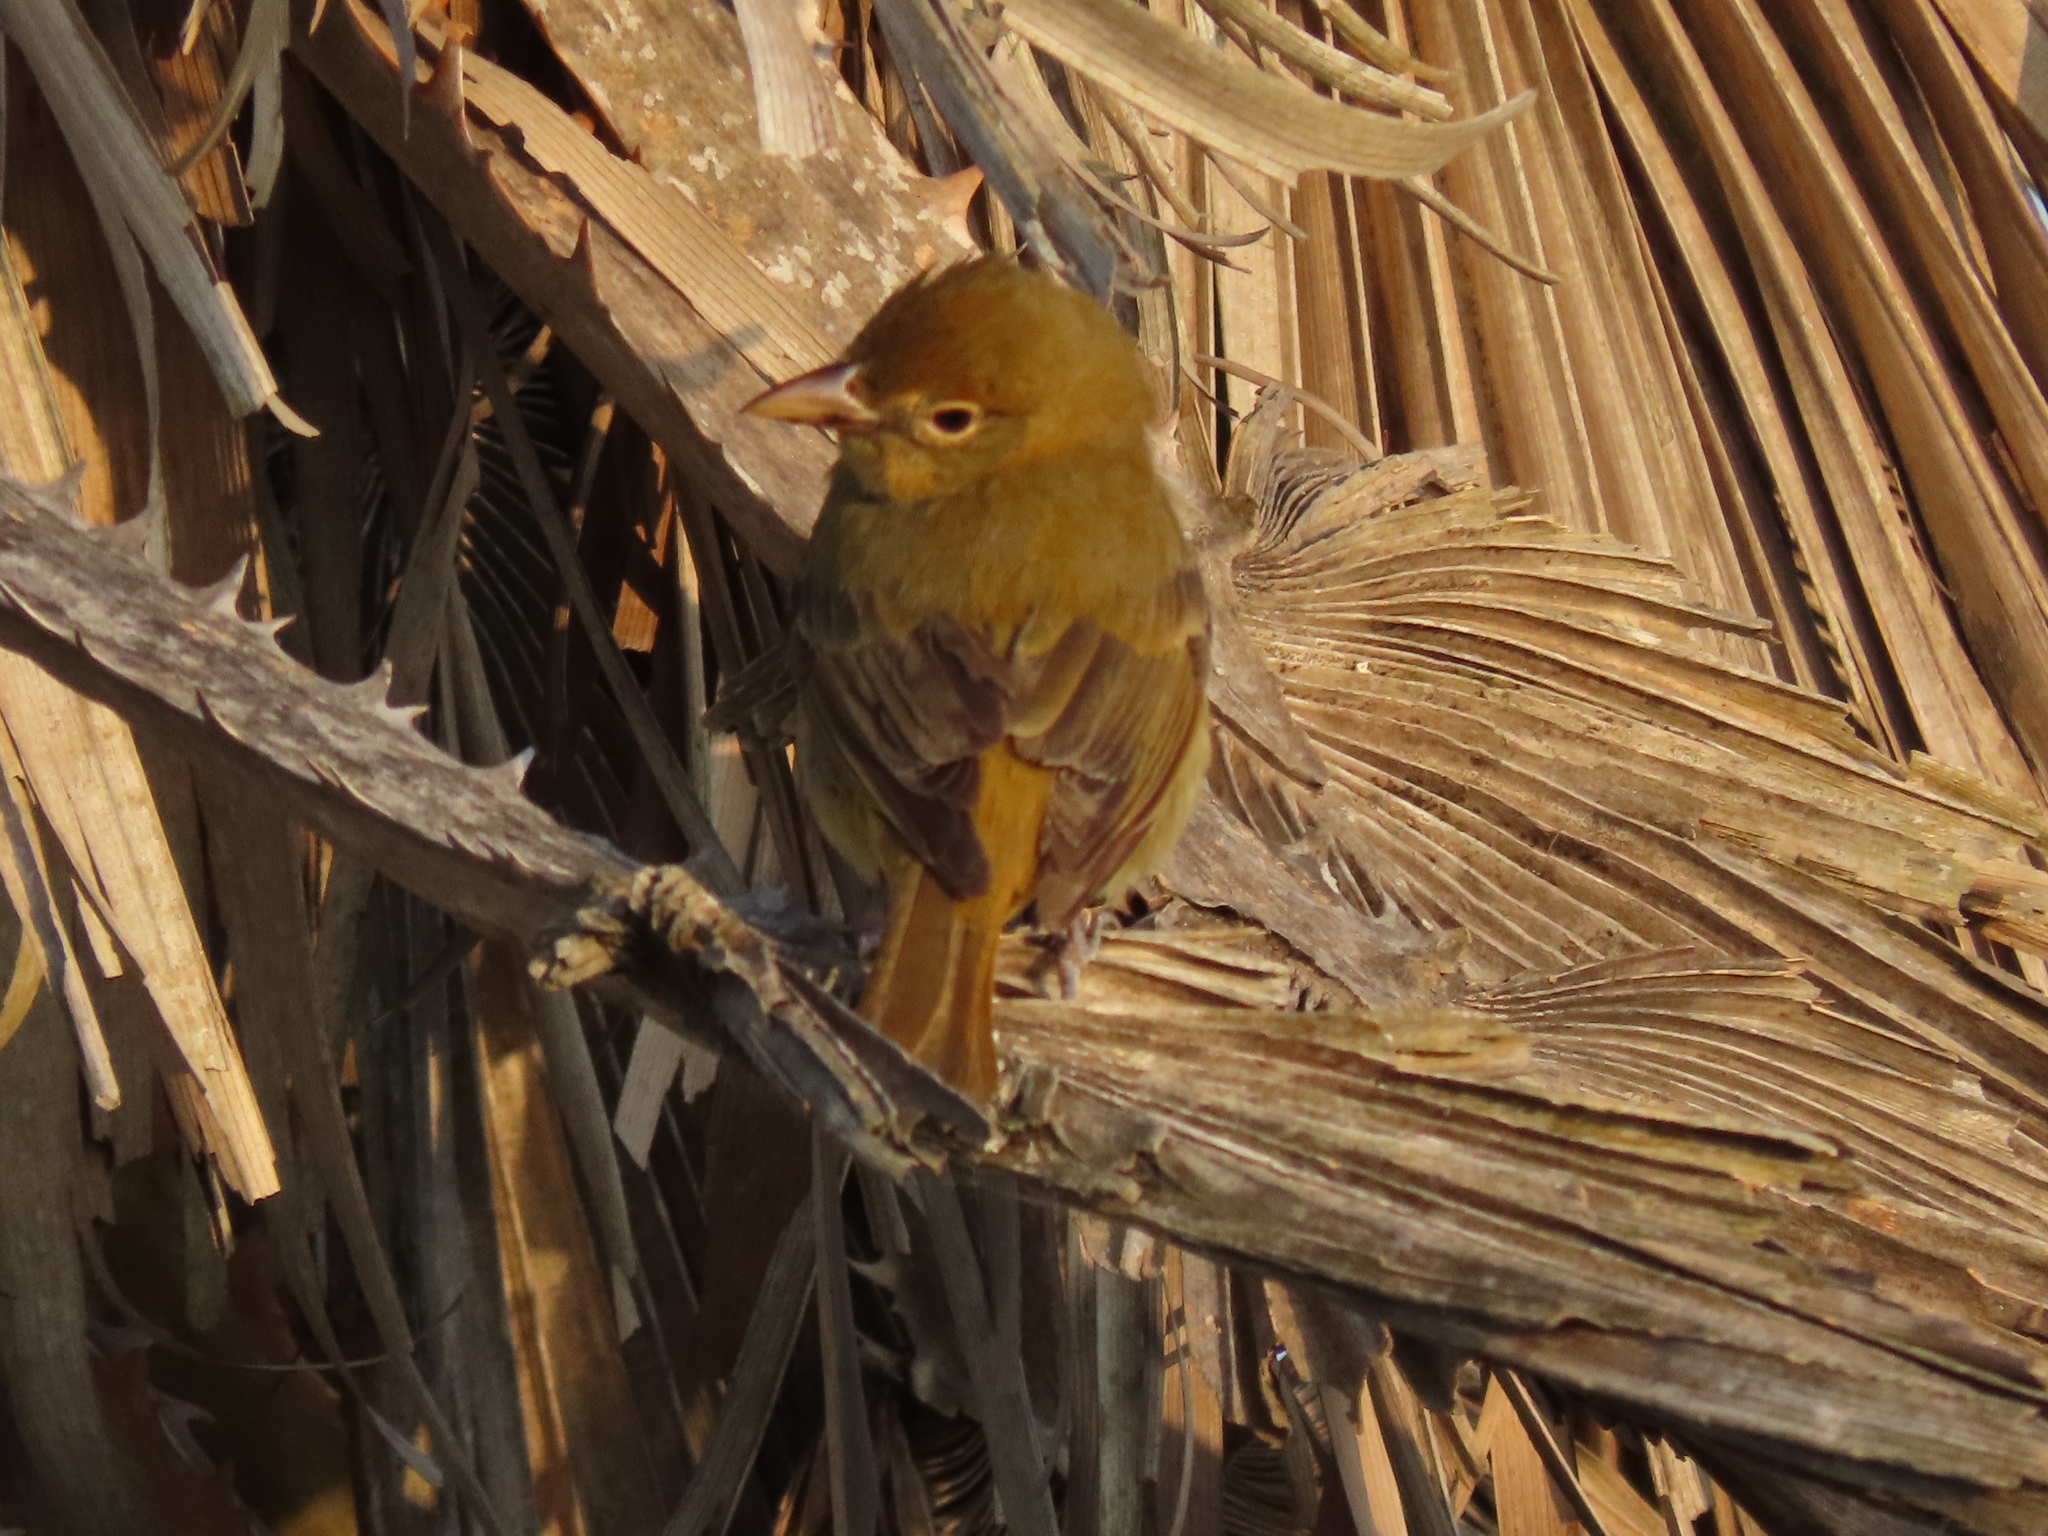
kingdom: Animalia
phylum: Chordata
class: Aves
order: Passeriformes
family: Cardinalidae
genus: Piranga
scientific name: Piranga rubra
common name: Summer tanager
